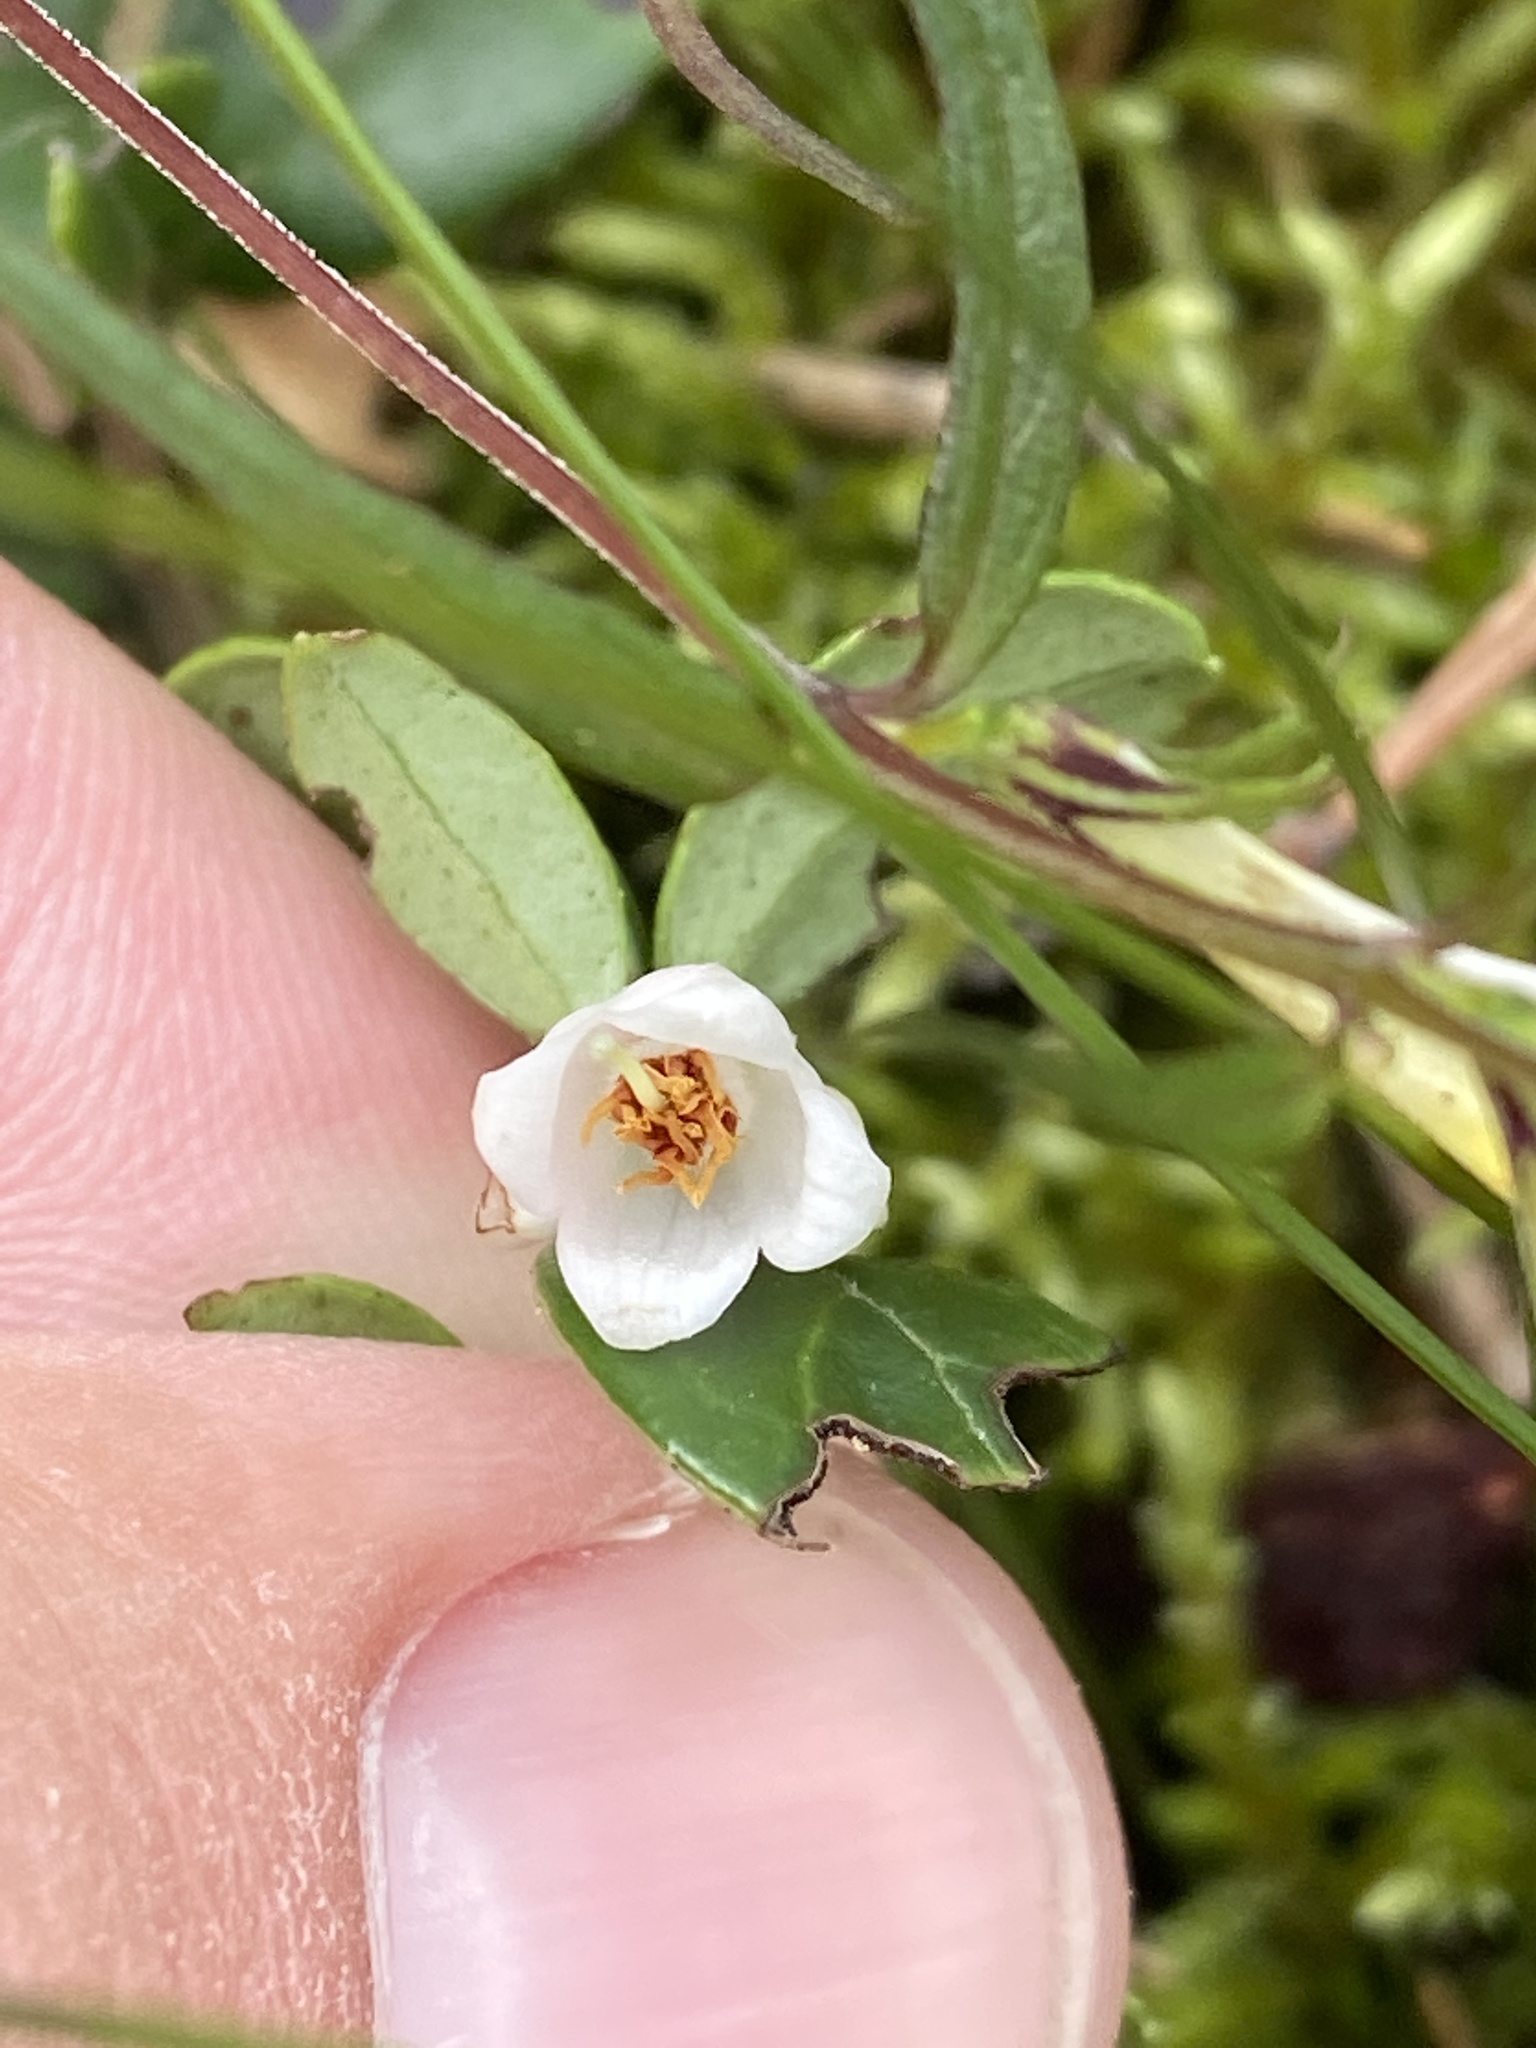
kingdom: Plantae
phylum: Tracheophyta
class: Magnoliopsida
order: Ericales
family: Ericaceae
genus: Vaccinium
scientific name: Vaccinium vitis-idaea
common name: Cowberry
